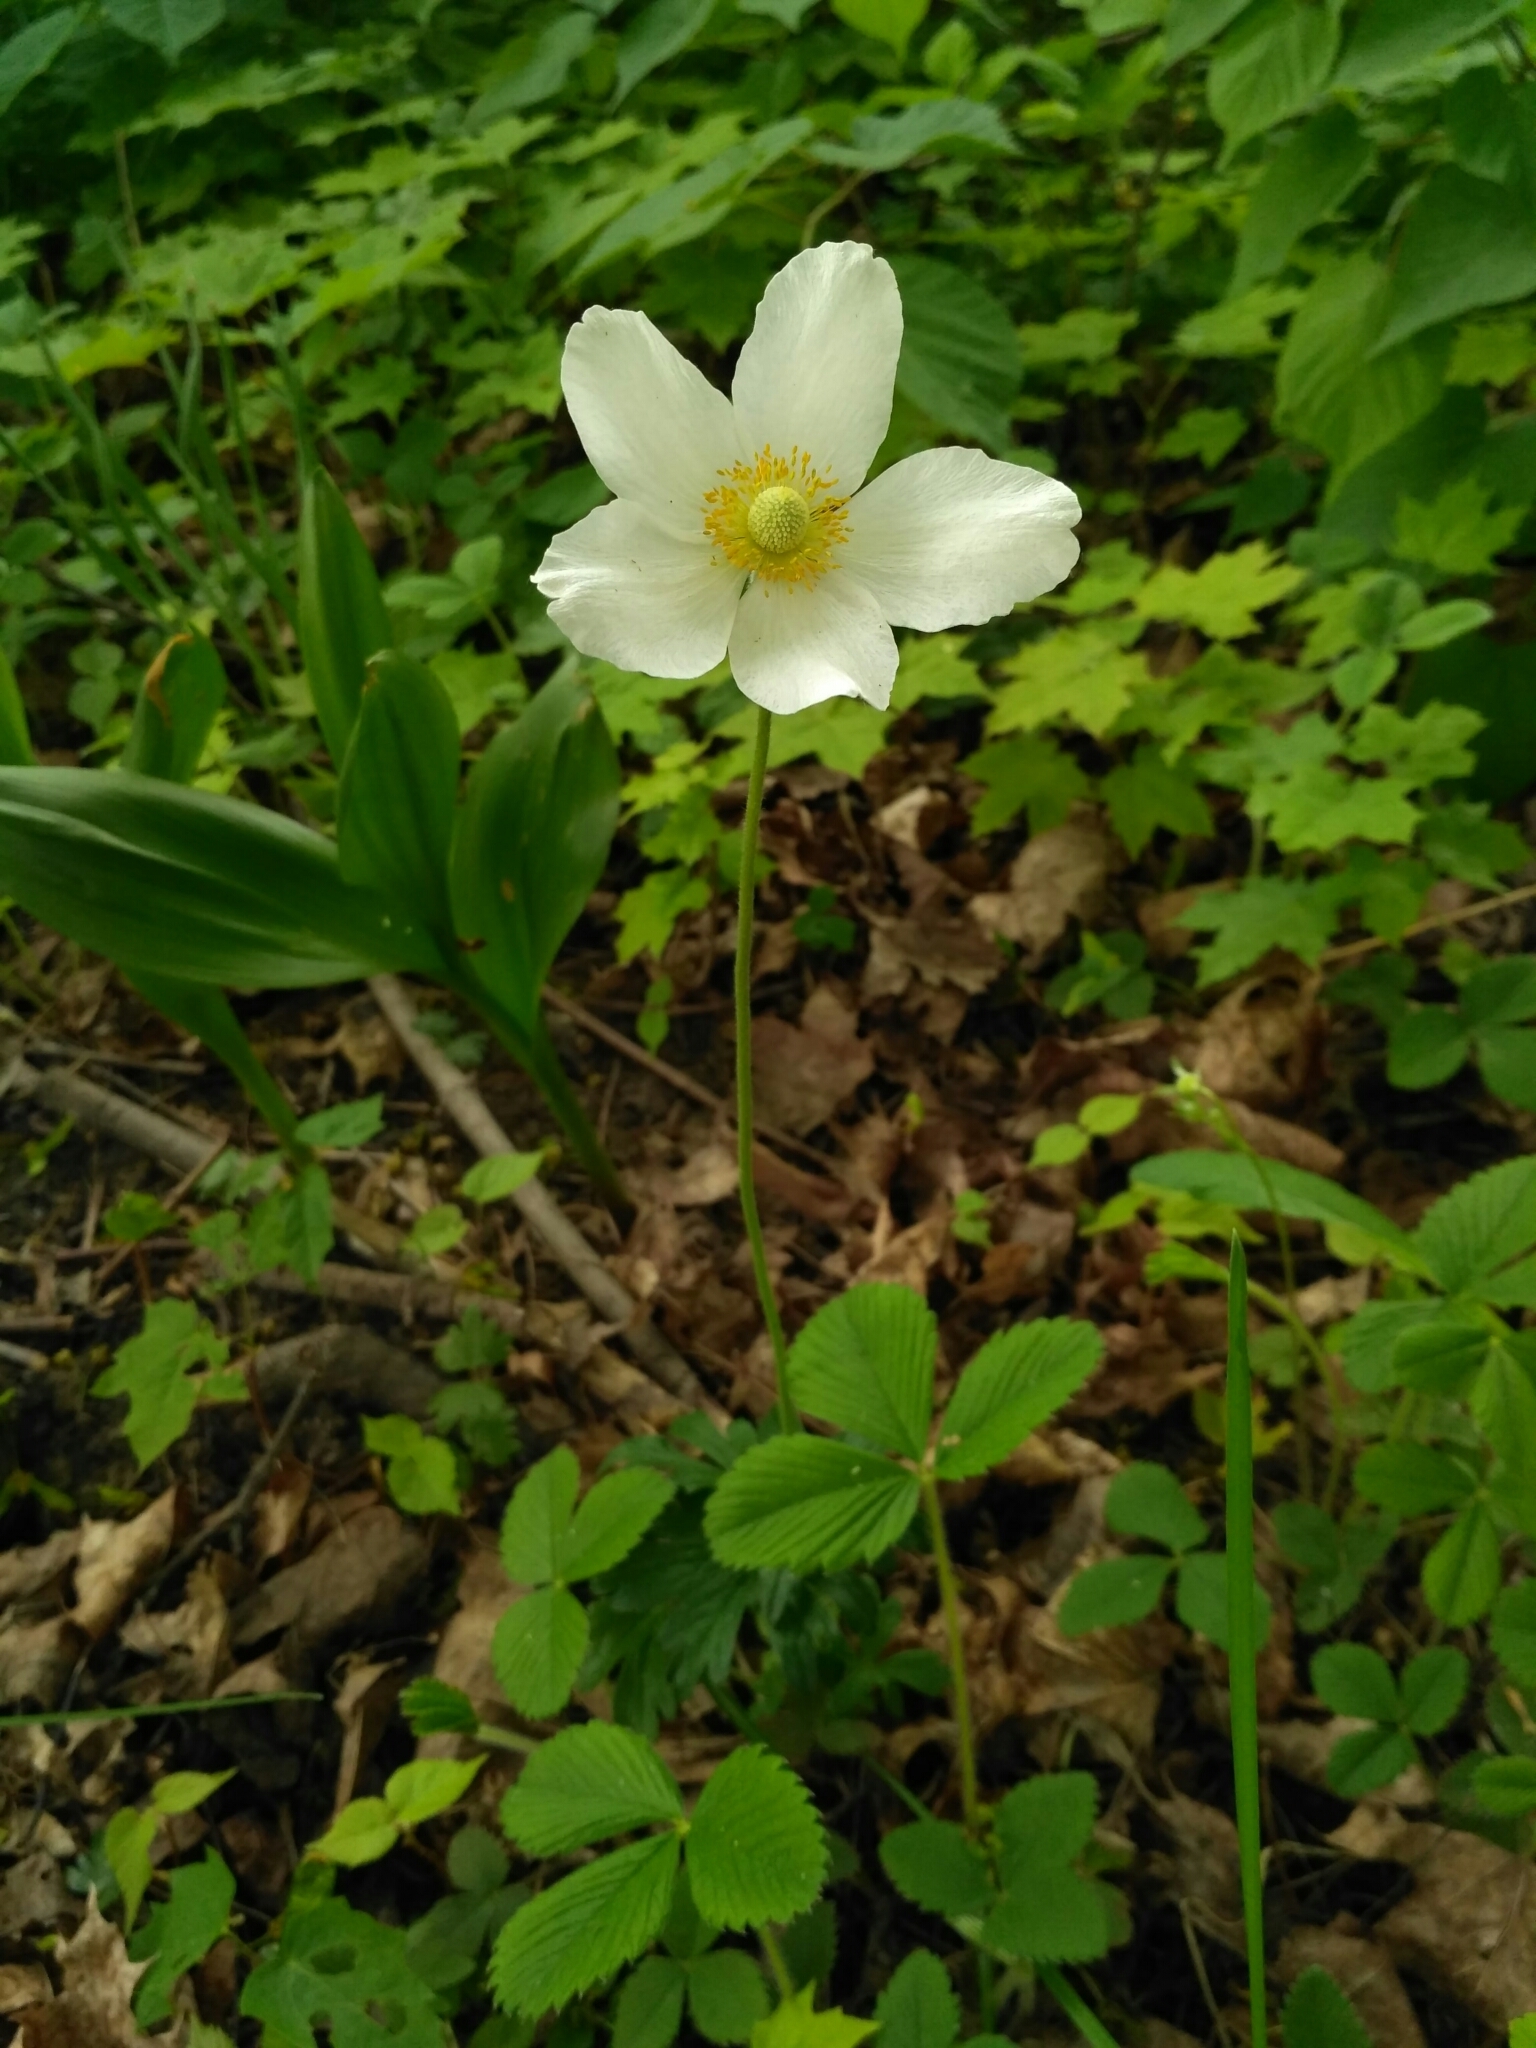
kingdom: Plantae
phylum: Tracheophyta
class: Magnoliopsida
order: Ranunculales
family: Ranunculaceae
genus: Anemone
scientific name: Anemone sylvestris
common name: Snowdrop anemone
